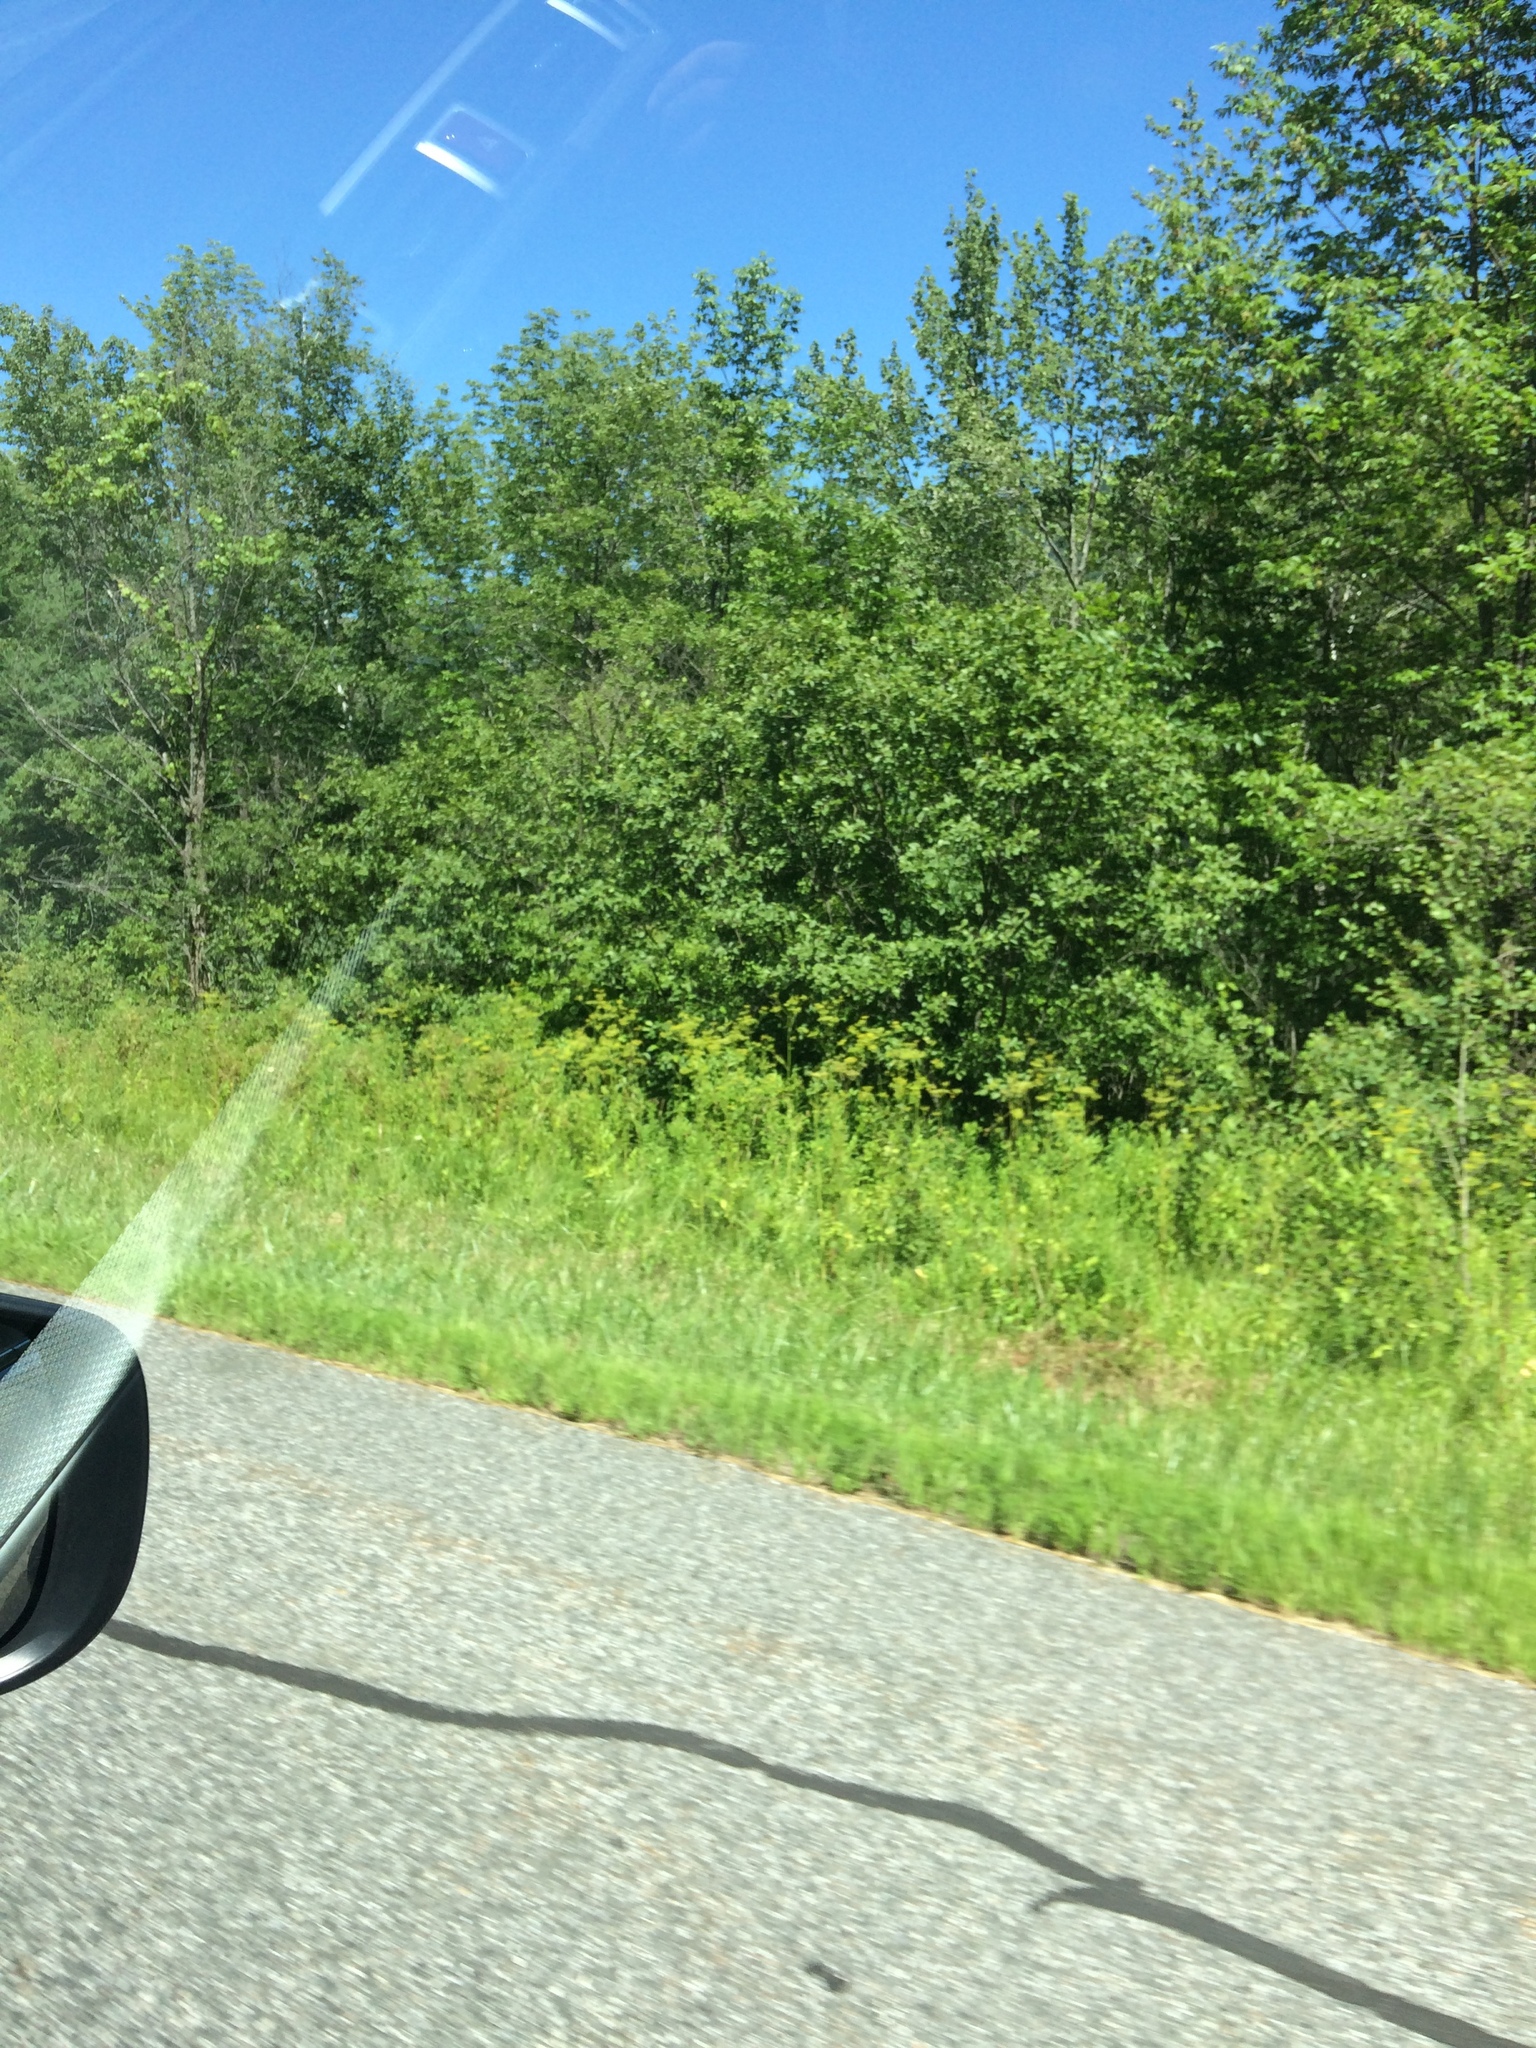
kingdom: Plantae
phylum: Tracheophyta
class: Magnoliopsida
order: Apiales
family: Apiaceae
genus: Pastinaca
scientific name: Pastinaca sativa
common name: Wild parsnip
